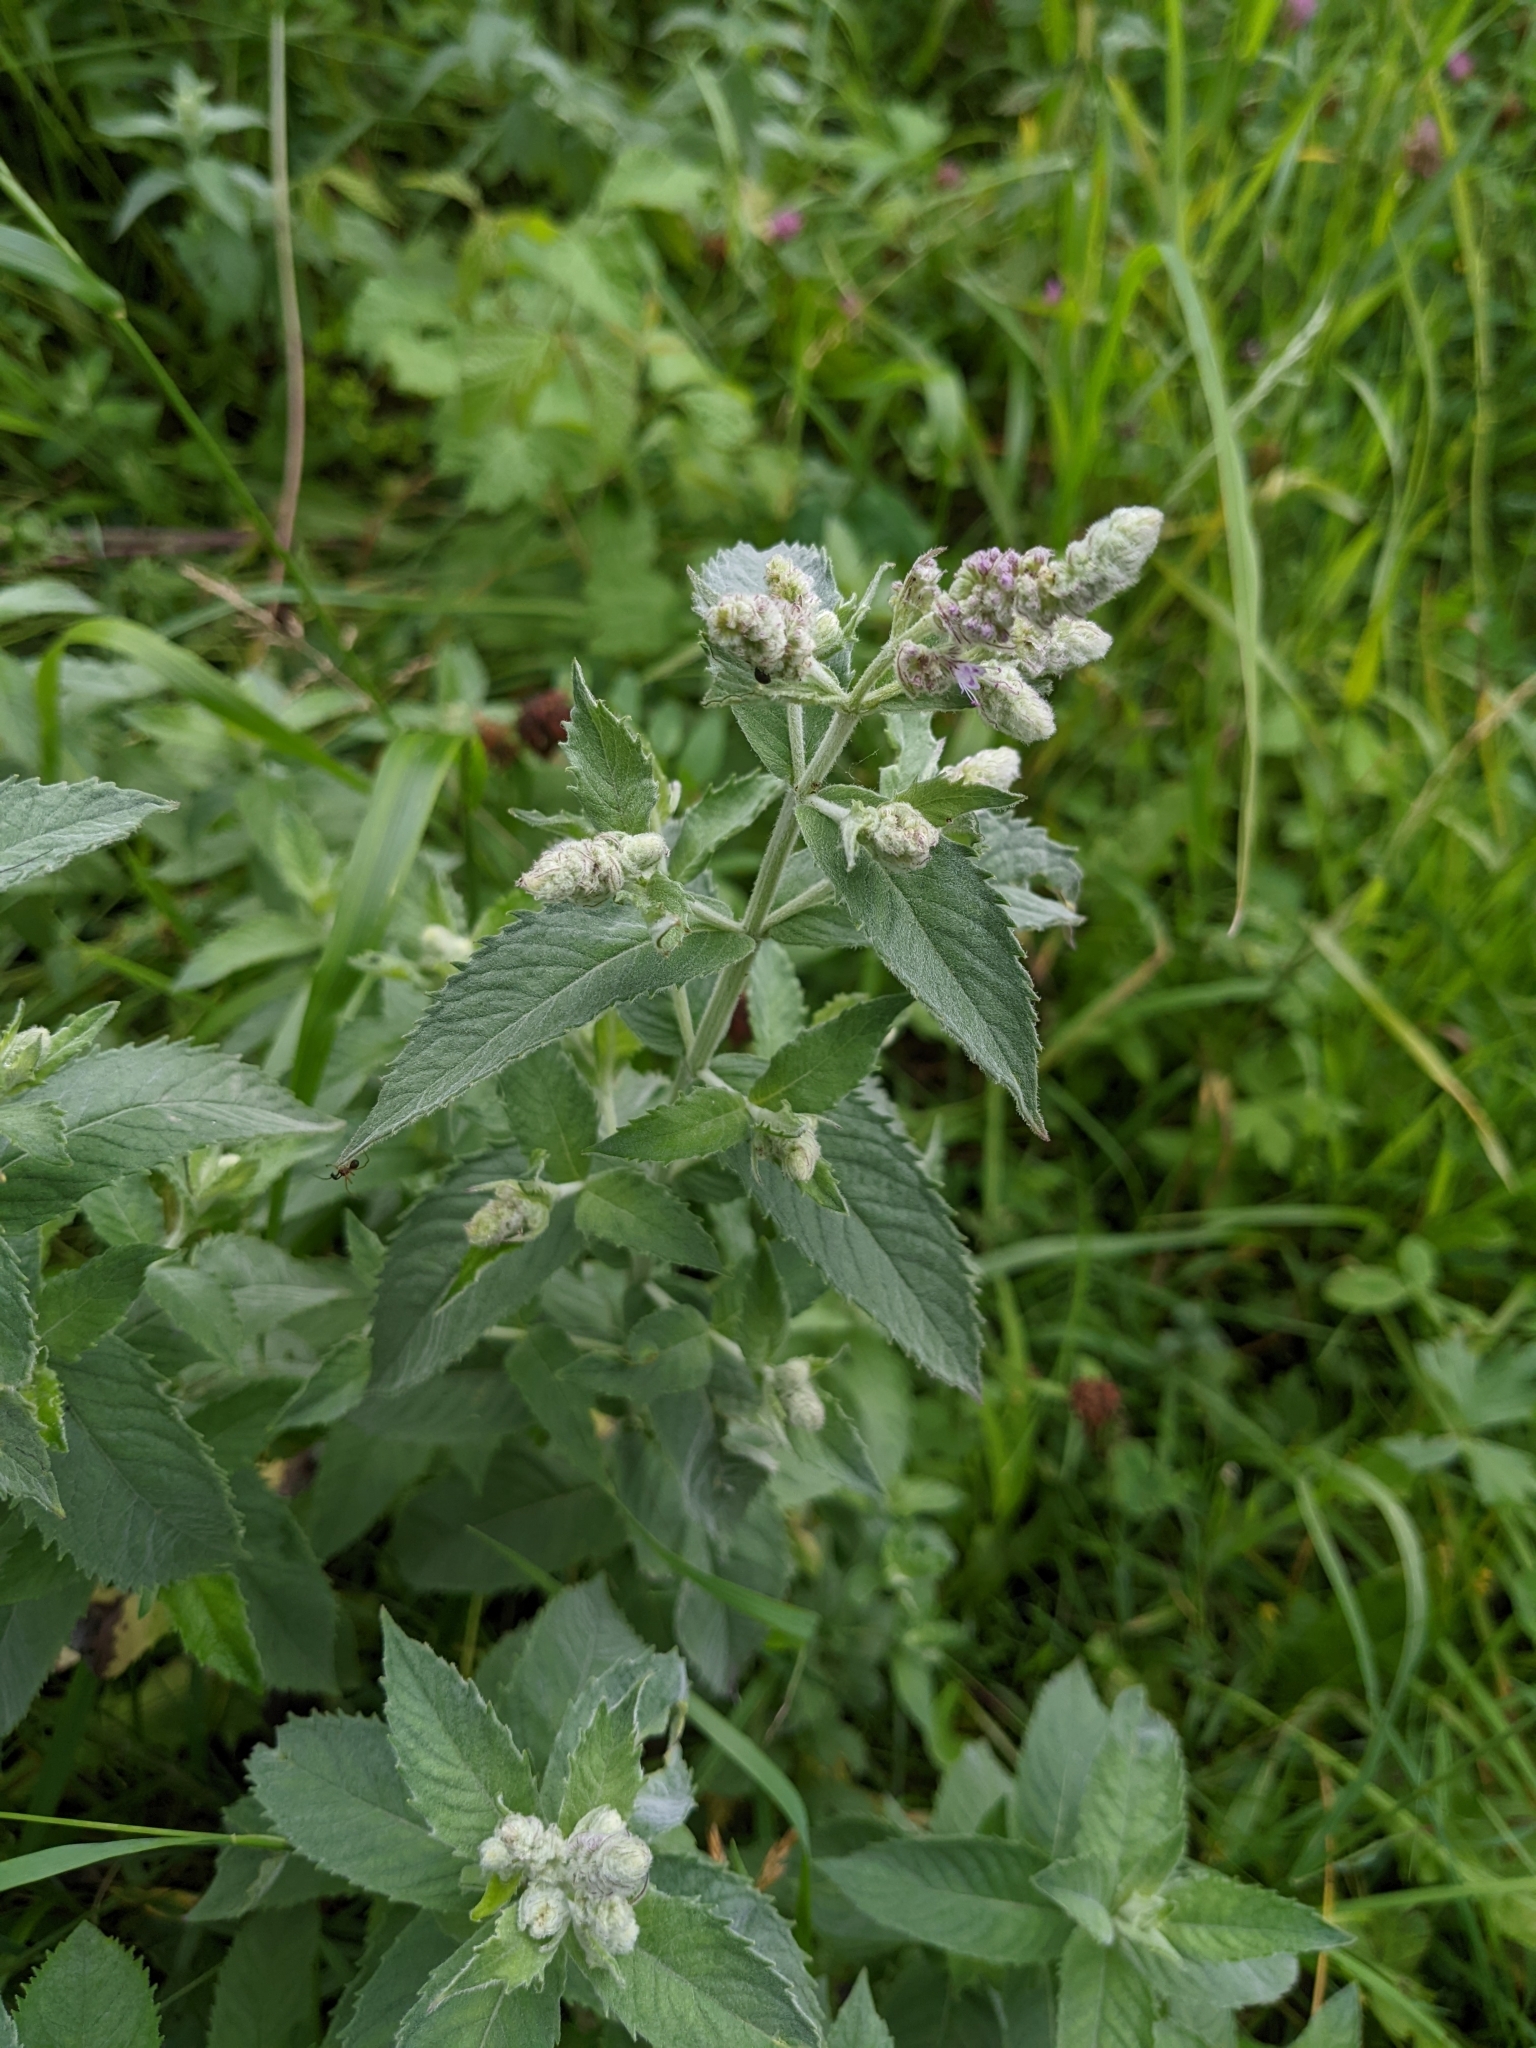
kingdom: Plantae
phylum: Tracheophyta
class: Magnoliopsida
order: Lamiales
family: Lamiaceae
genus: Mentha
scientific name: Mentha longifolia
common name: Horse mint
